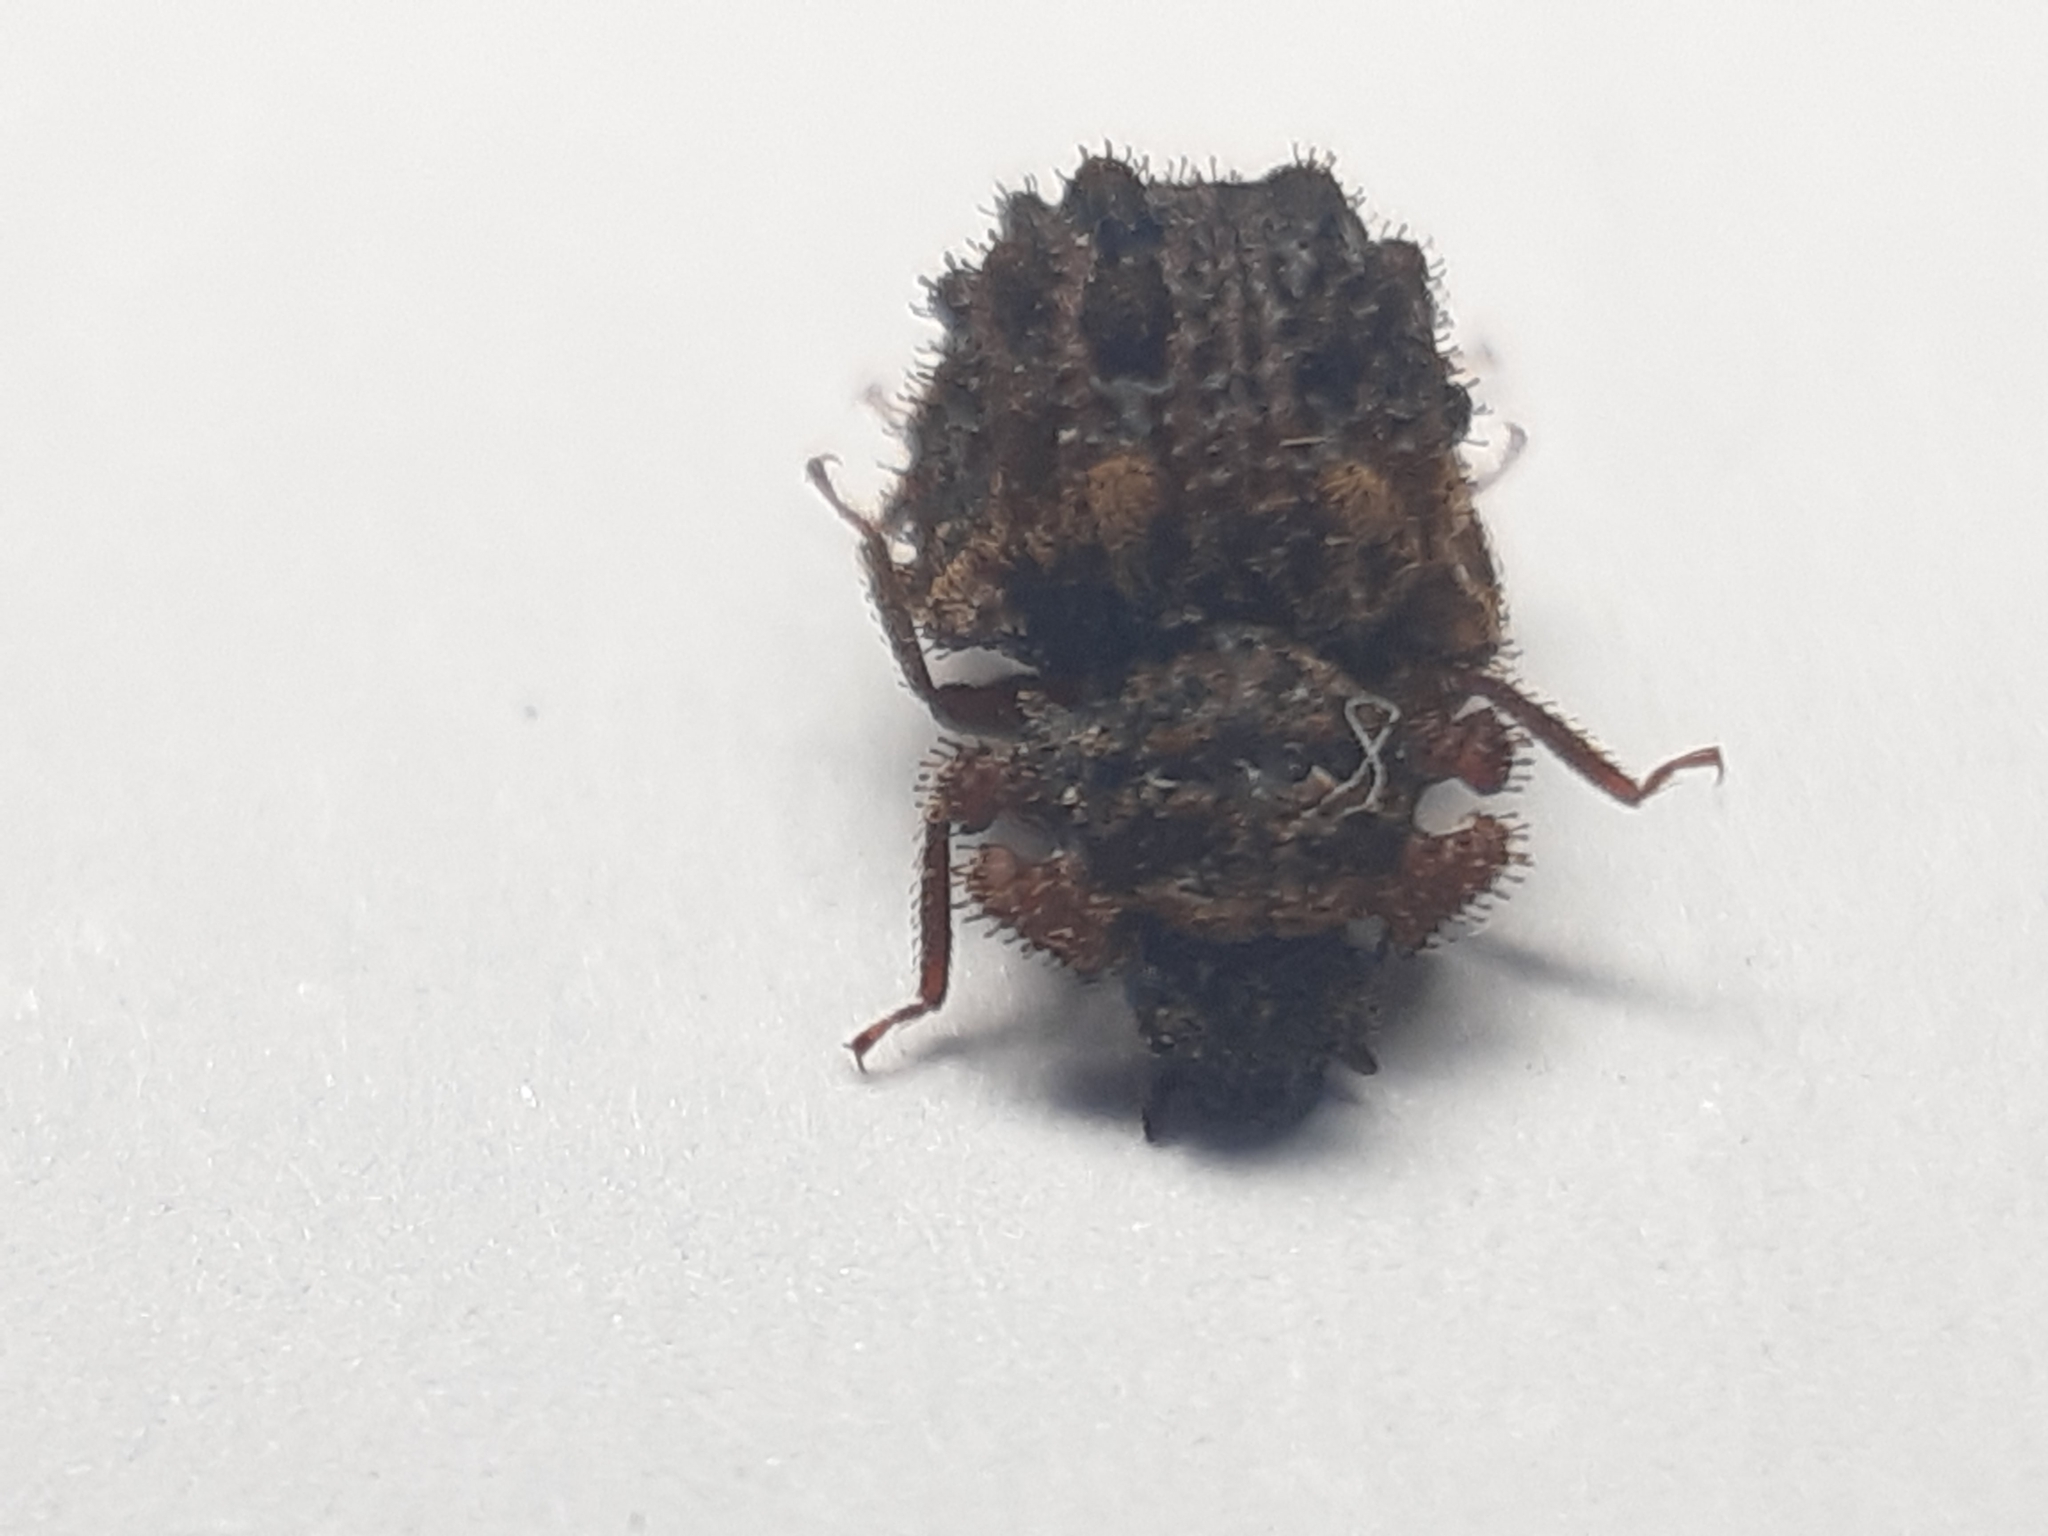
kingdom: Animalia
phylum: Arthropoda
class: Insecta
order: Coleoptera
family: Zopheridae
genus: Pristoderus
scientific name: Pristoderus
